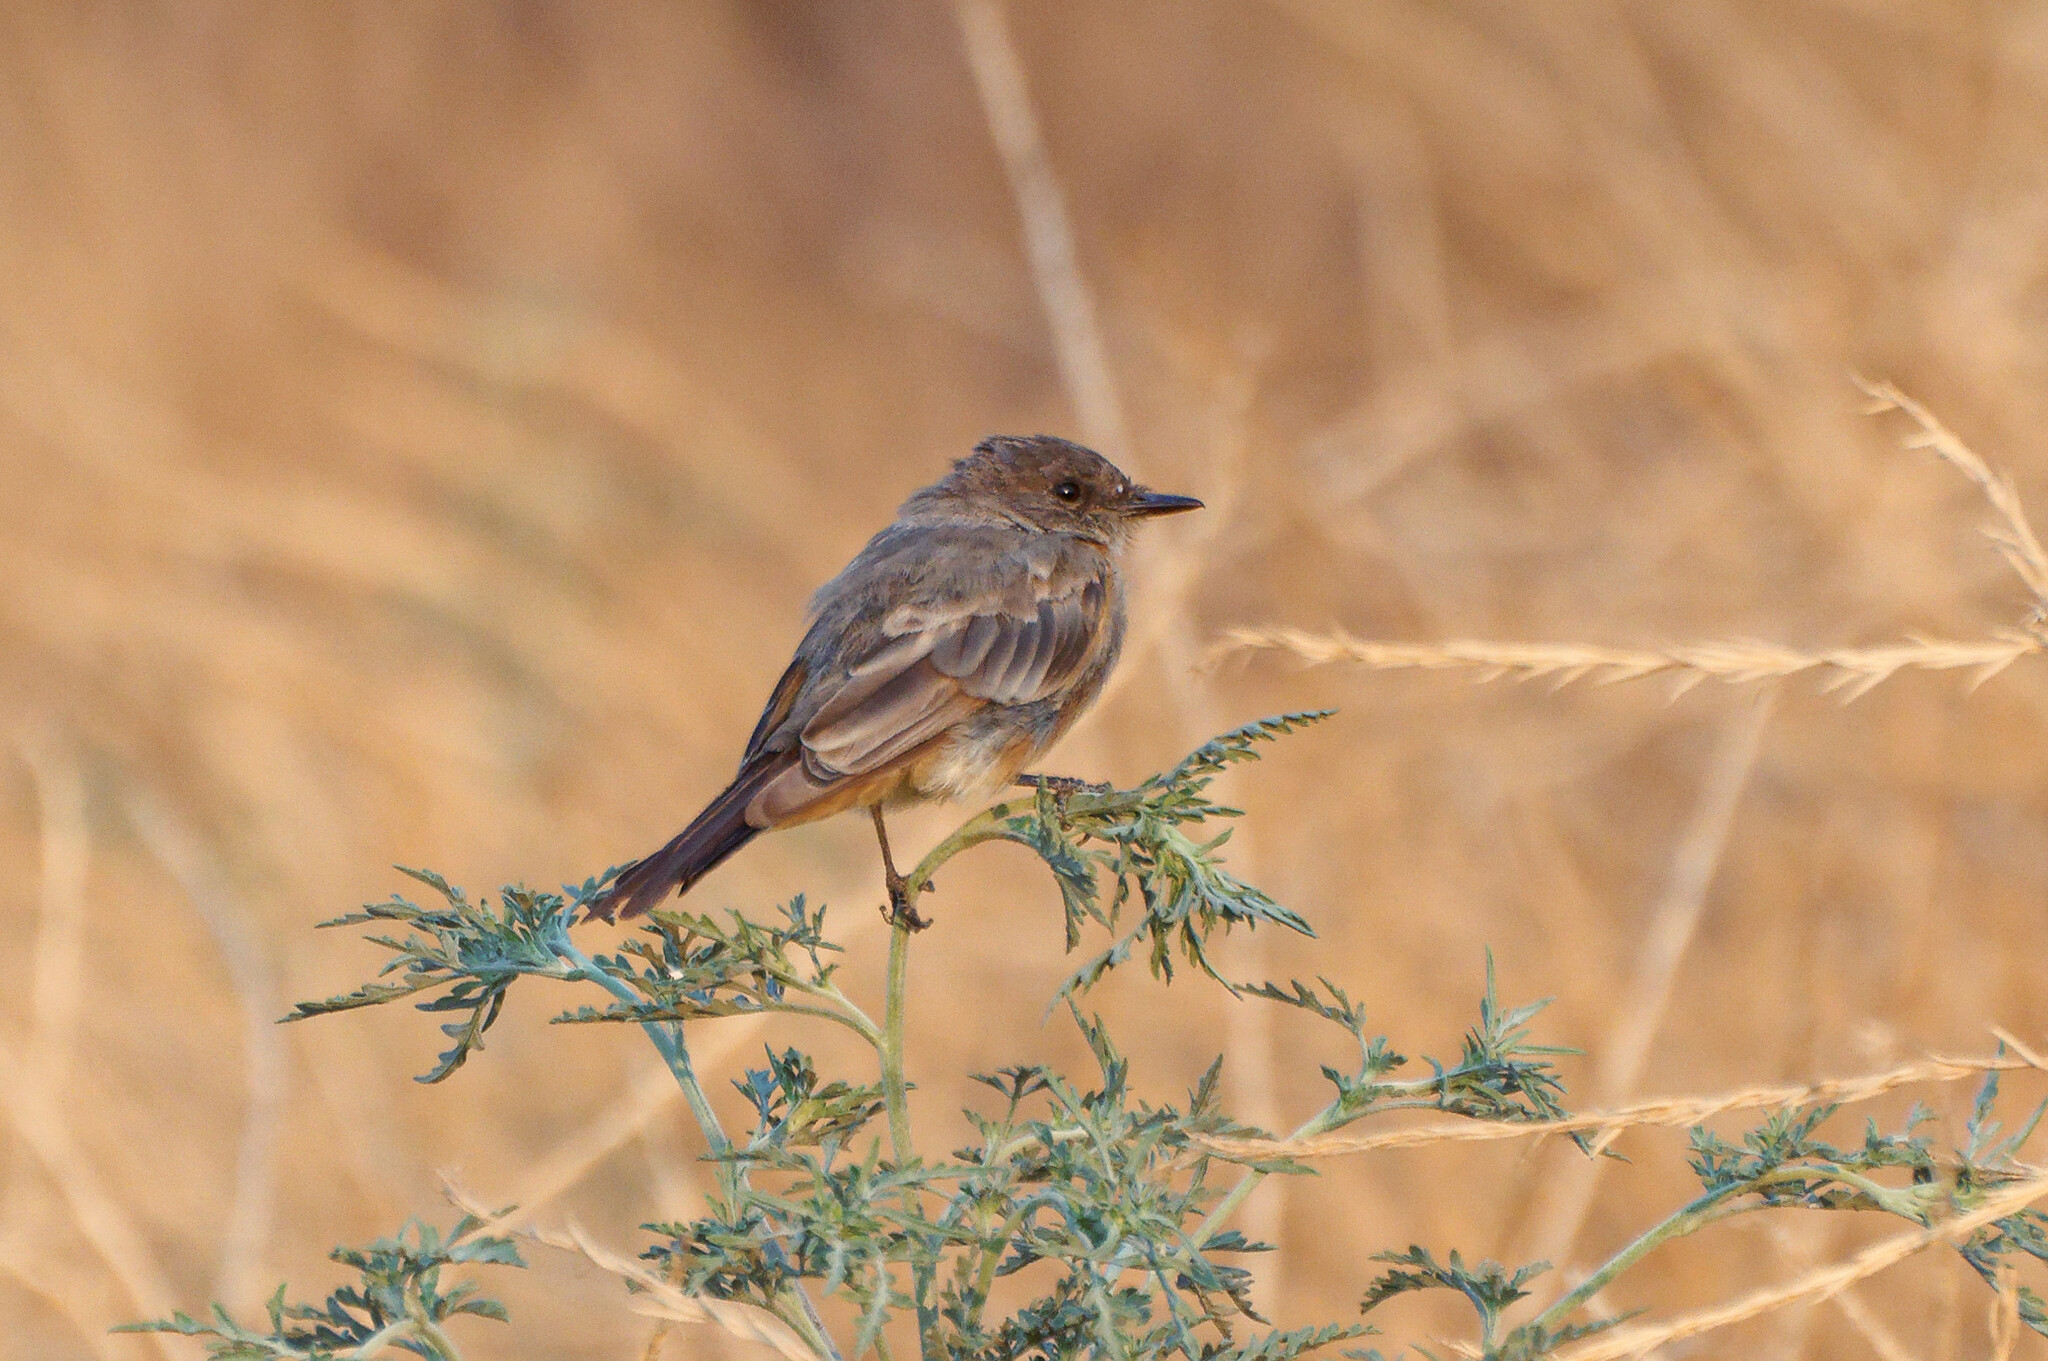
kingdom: Animalia
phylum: Chordata
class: Aves
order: Passeriformes
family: Tyrannidae
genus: Sayornis
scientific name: Sayornis saya
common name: Say's phoebe
